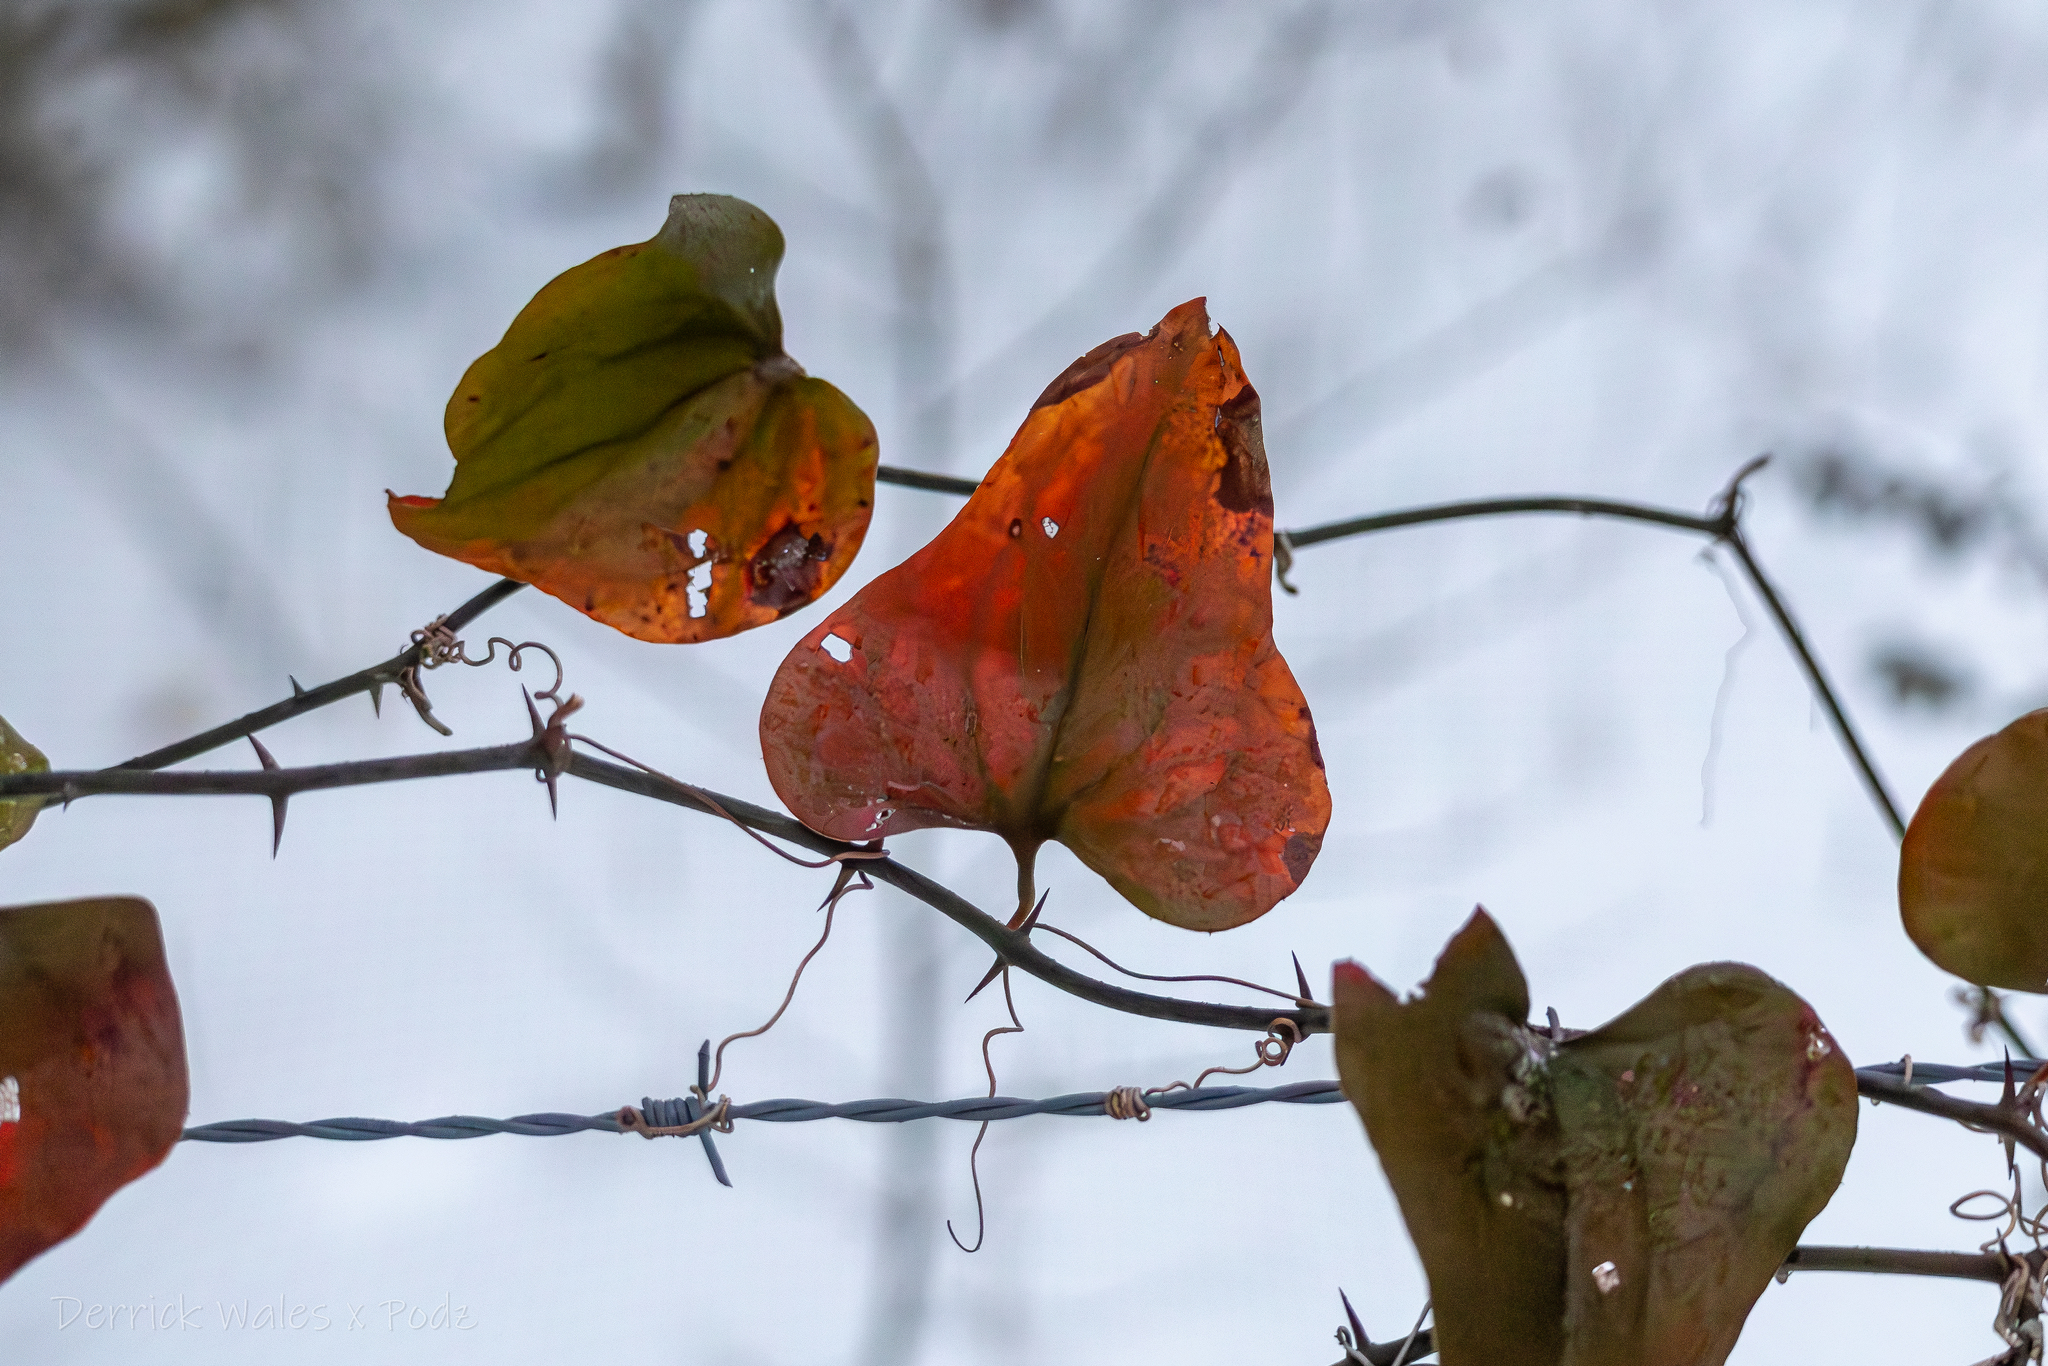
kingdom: Plantae
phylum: Tracheophyta
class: Liliopsida
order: Liliales
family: Smilacaceae
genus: Smilax
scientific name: Smilax bona-nox
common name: Catbrier
